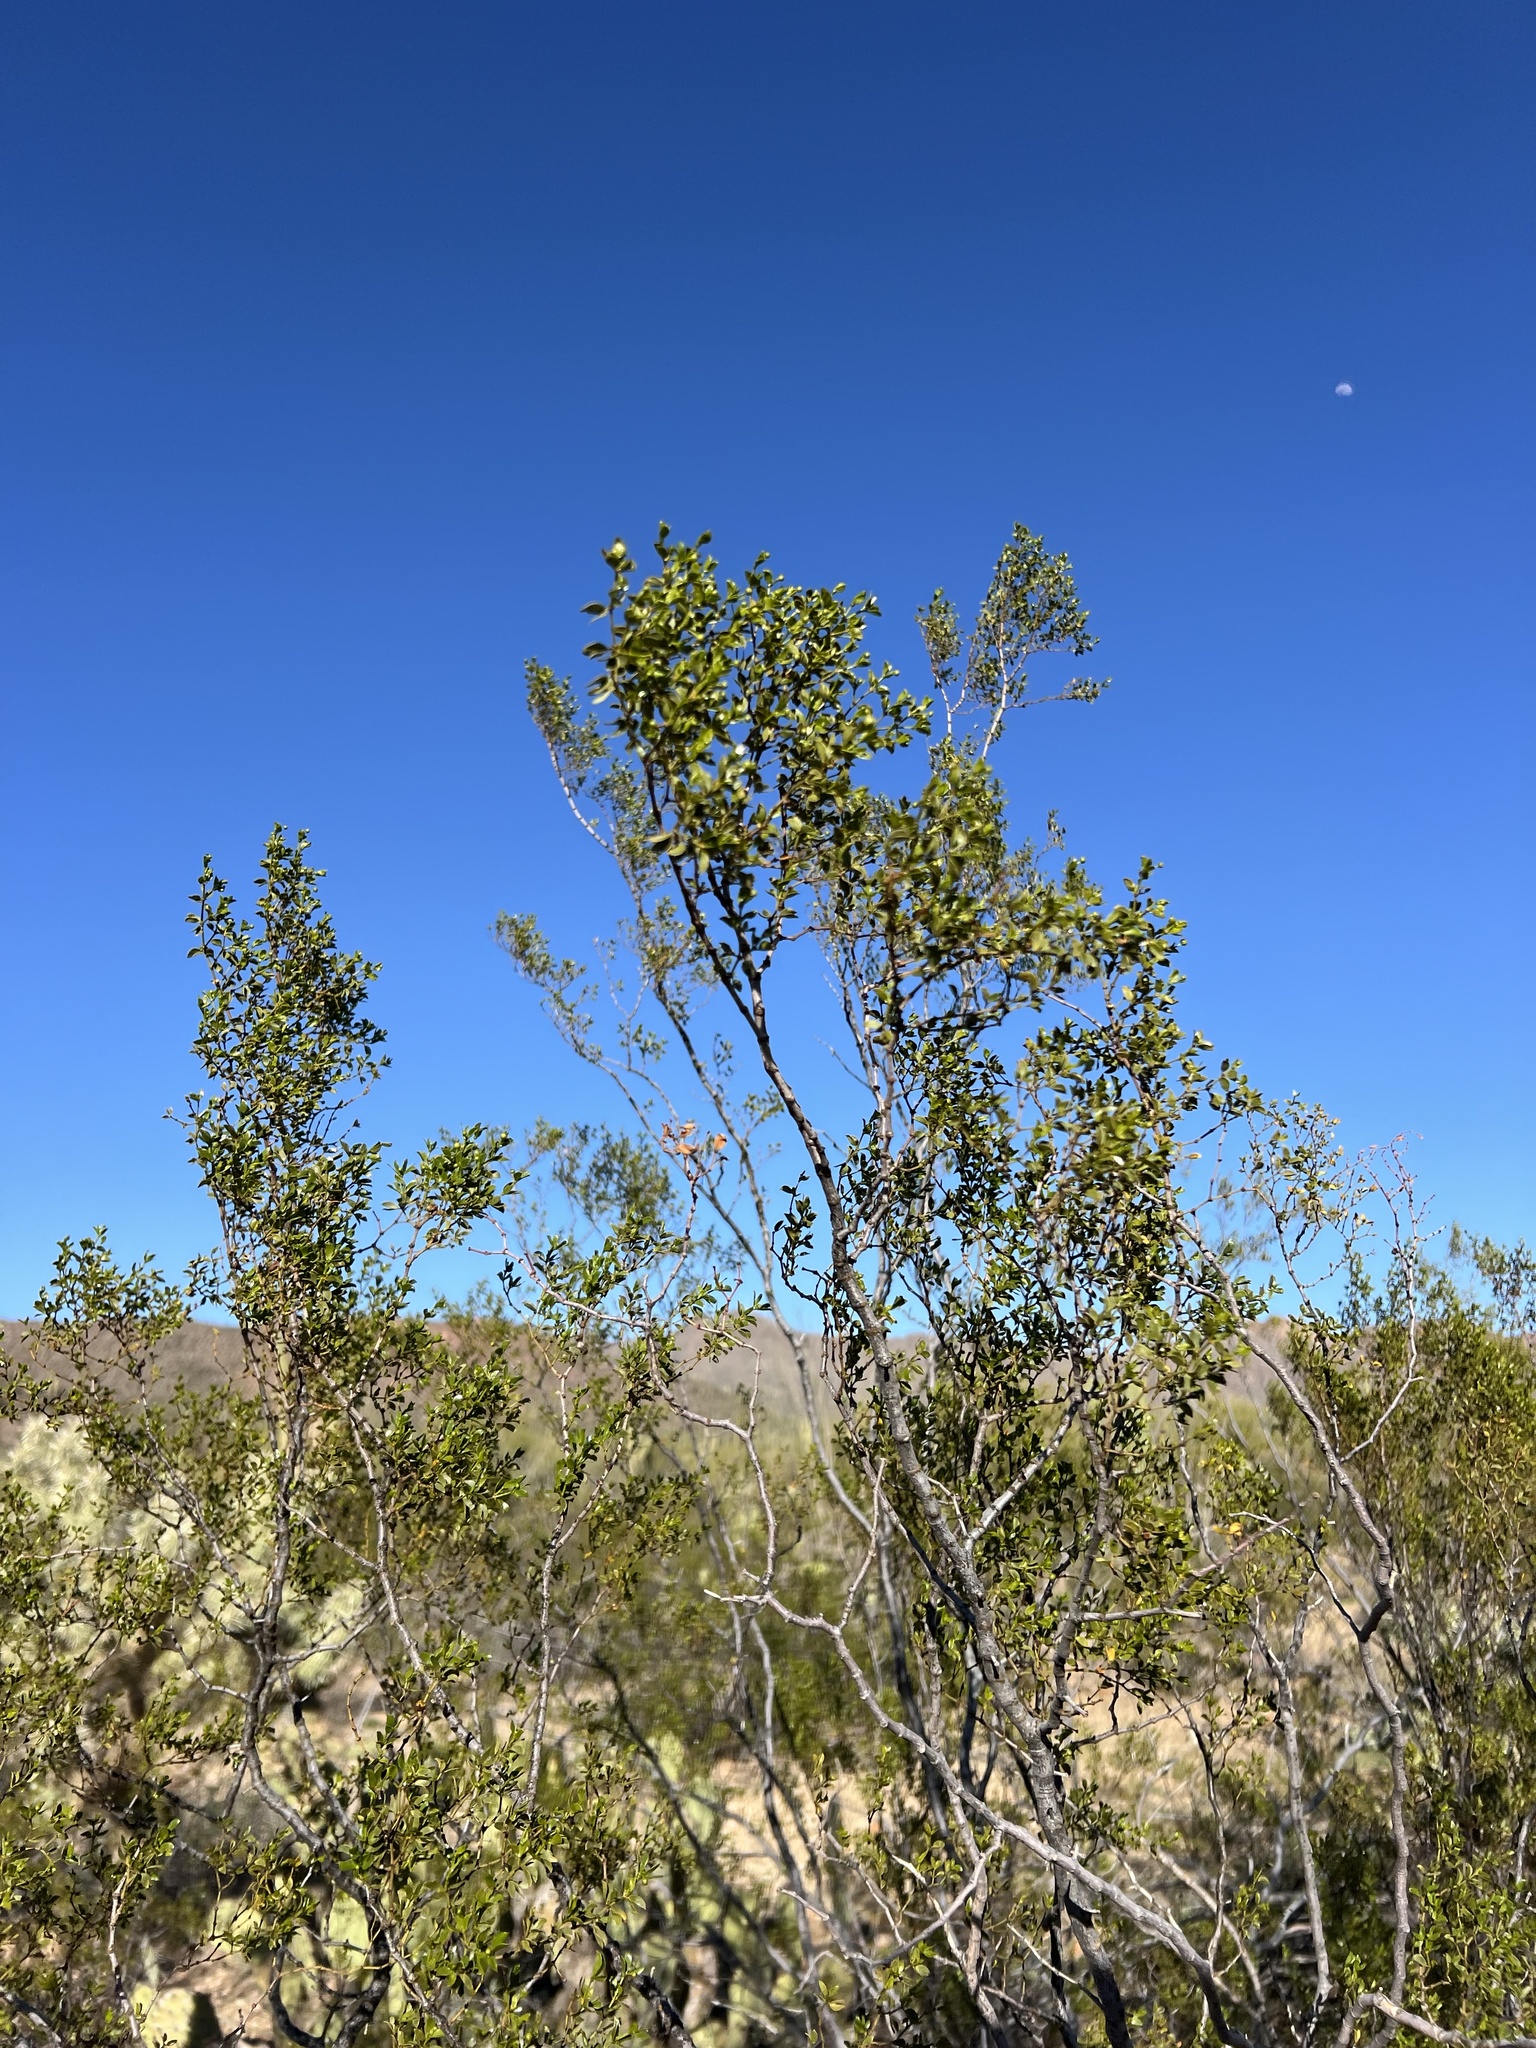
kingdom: Plantae
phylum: Tracheophyta
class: Magnoliopsida
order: Zygophyllales
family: Zygophyllaceae
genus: Larrea
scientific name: Larrea tridentata
